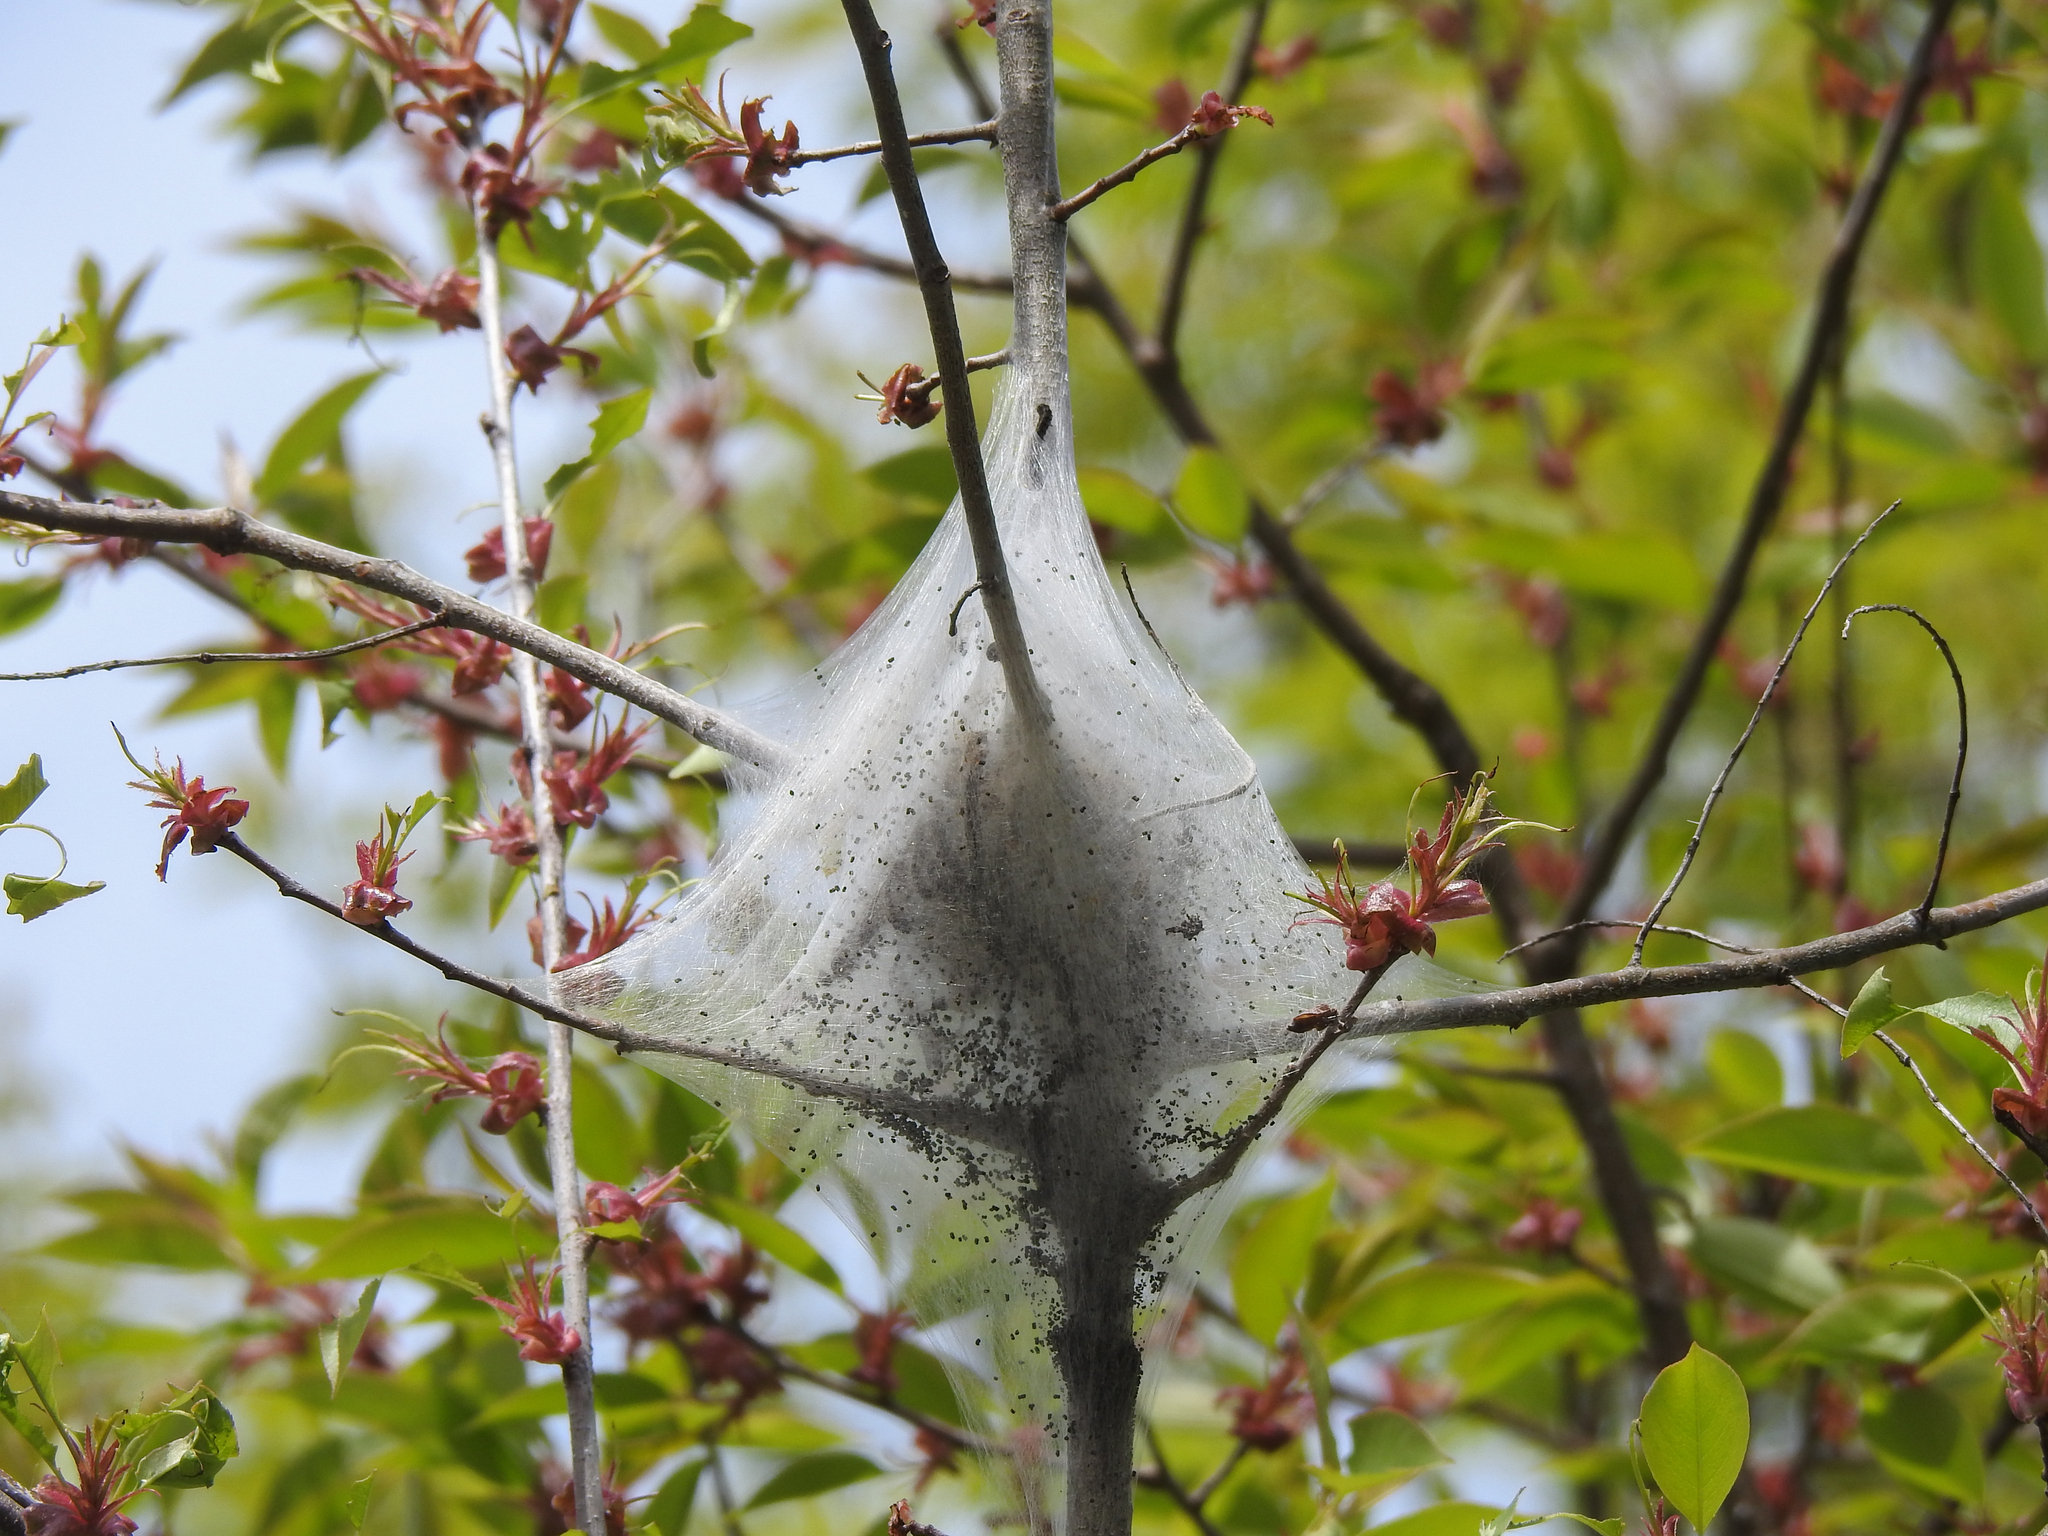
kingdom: Animalia
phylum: Arthropoda
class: Insecta
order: Lepidoptera
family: Lasiocampidae
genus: Malacosoma
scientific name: Malacosoma americana
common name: Eastern tent caterpillar moth
